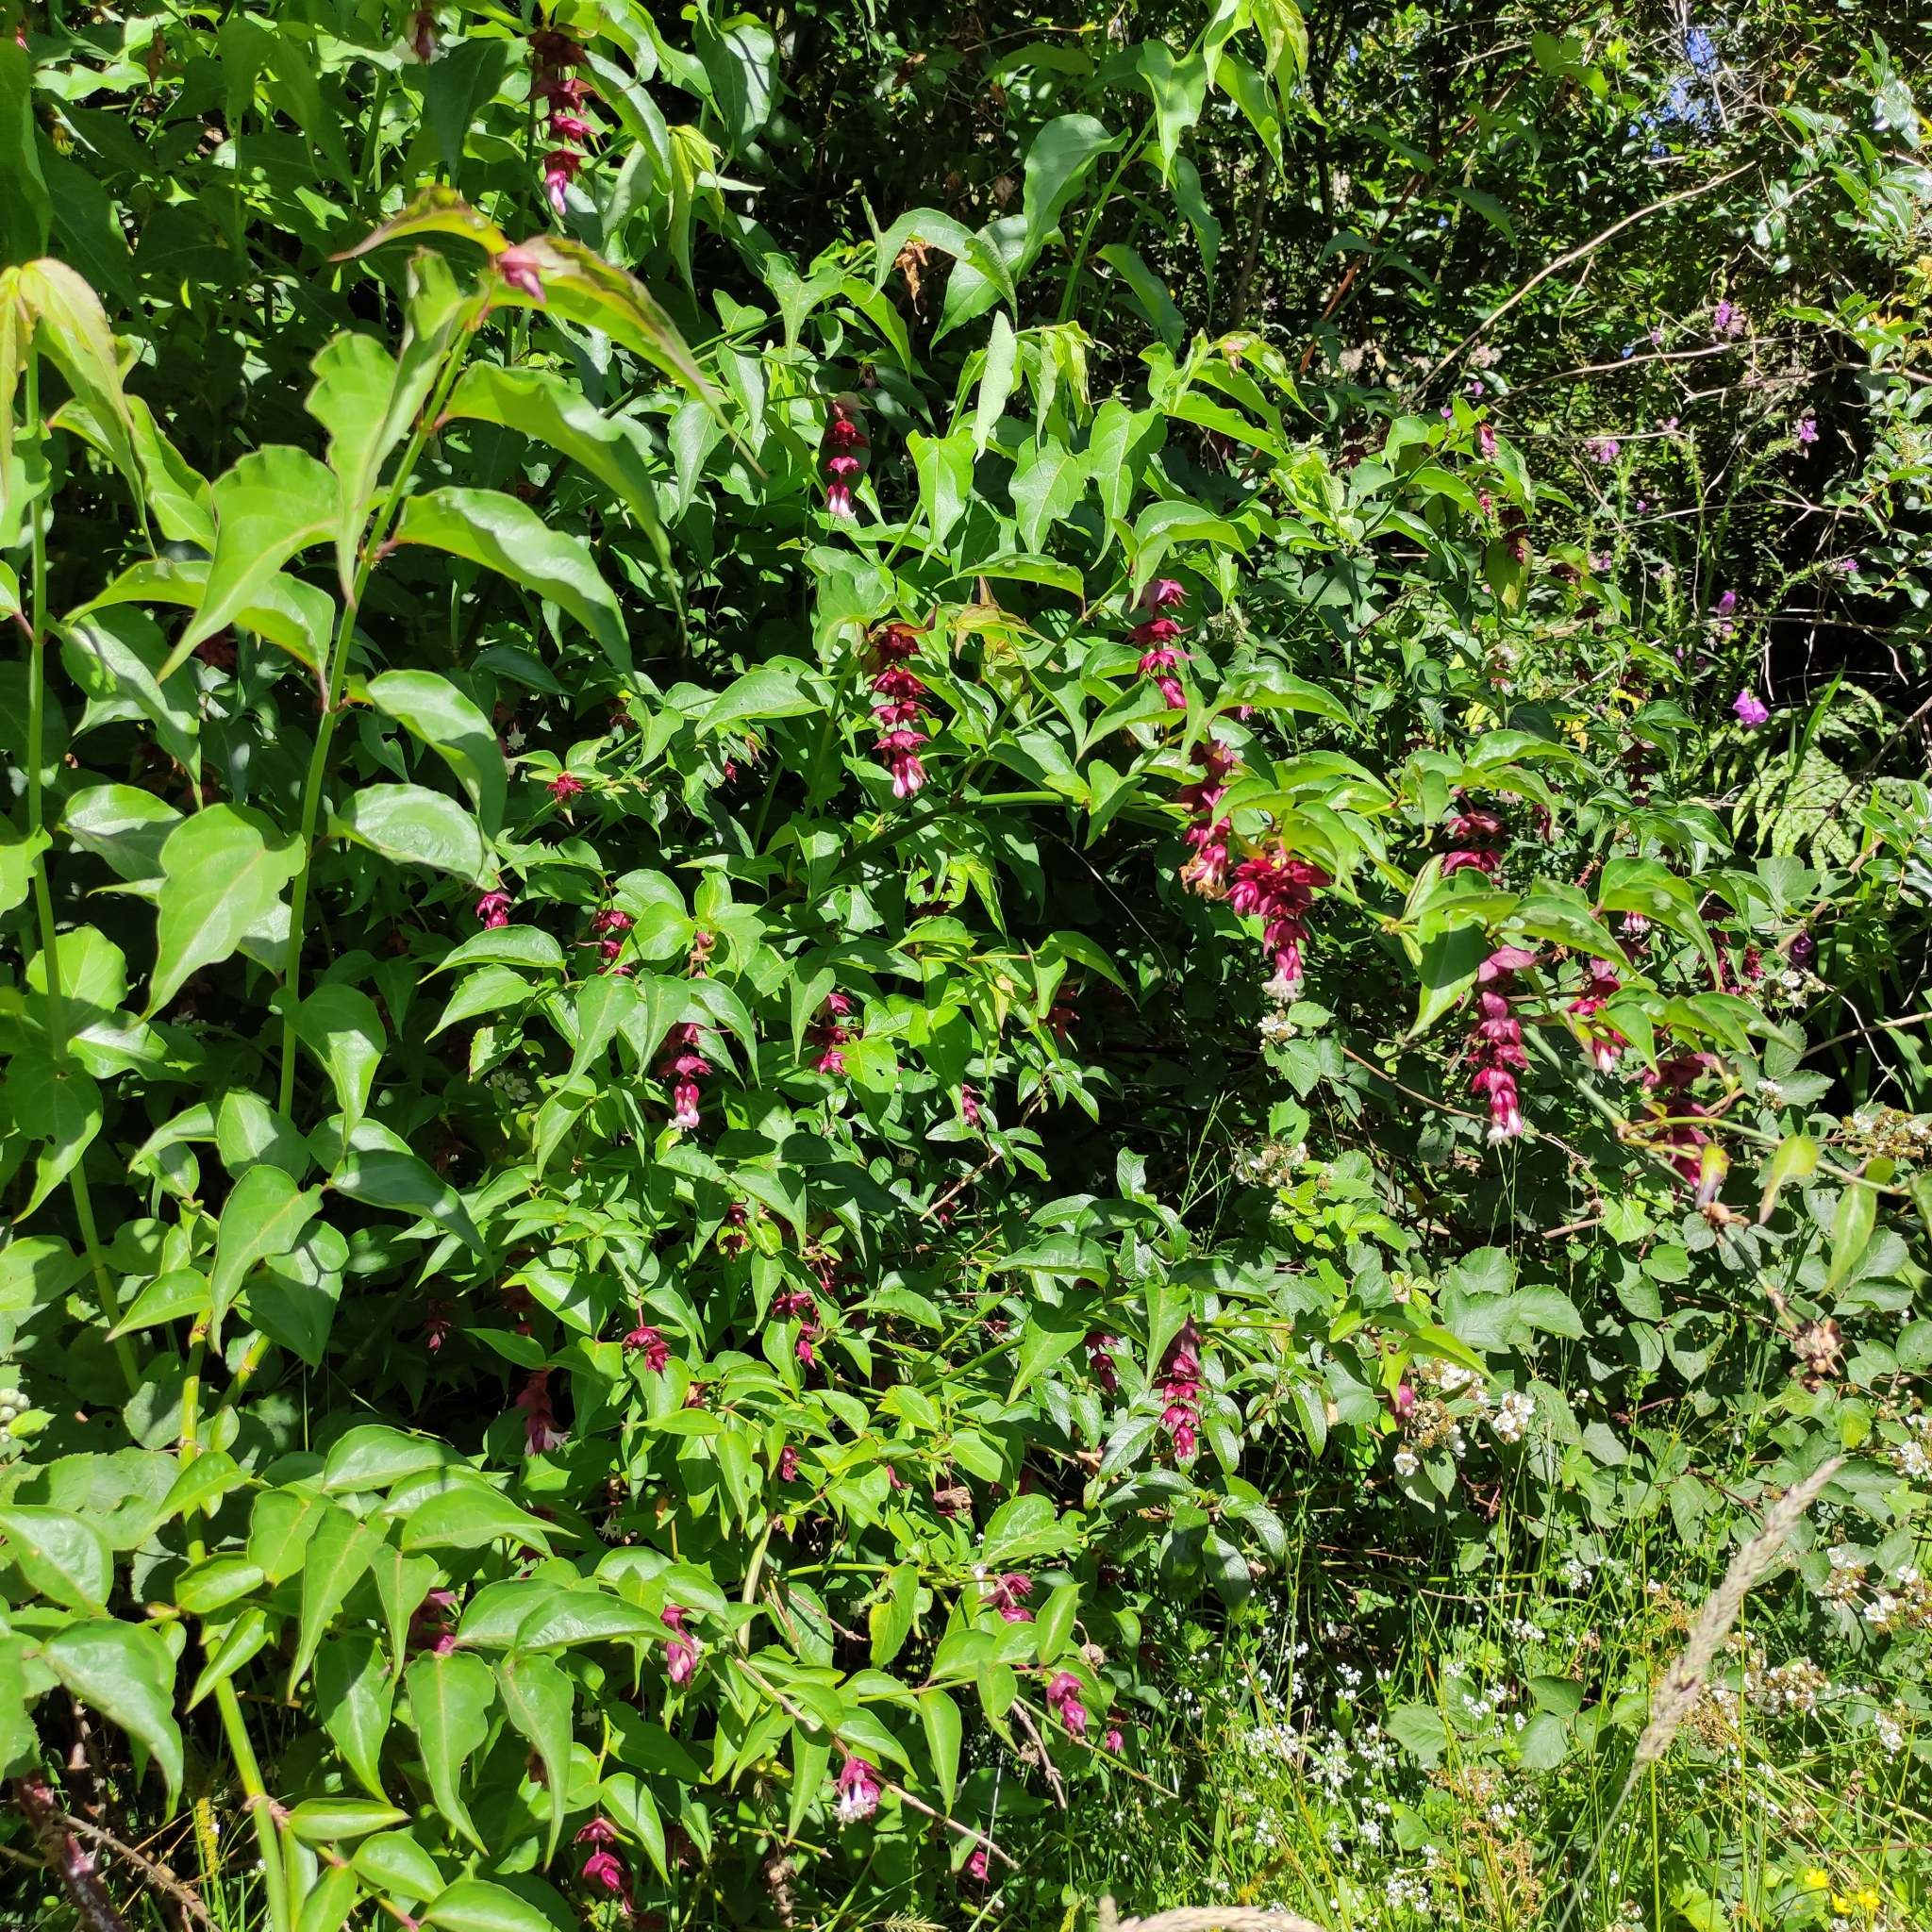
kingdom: Plantae
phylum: Tracheophyta
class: Magnoliopsida
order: Dipsacales
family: Caprifoliaceae
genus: Leycesteria
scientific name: Leycesteria formosa
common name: Himalayan honeysuckle
